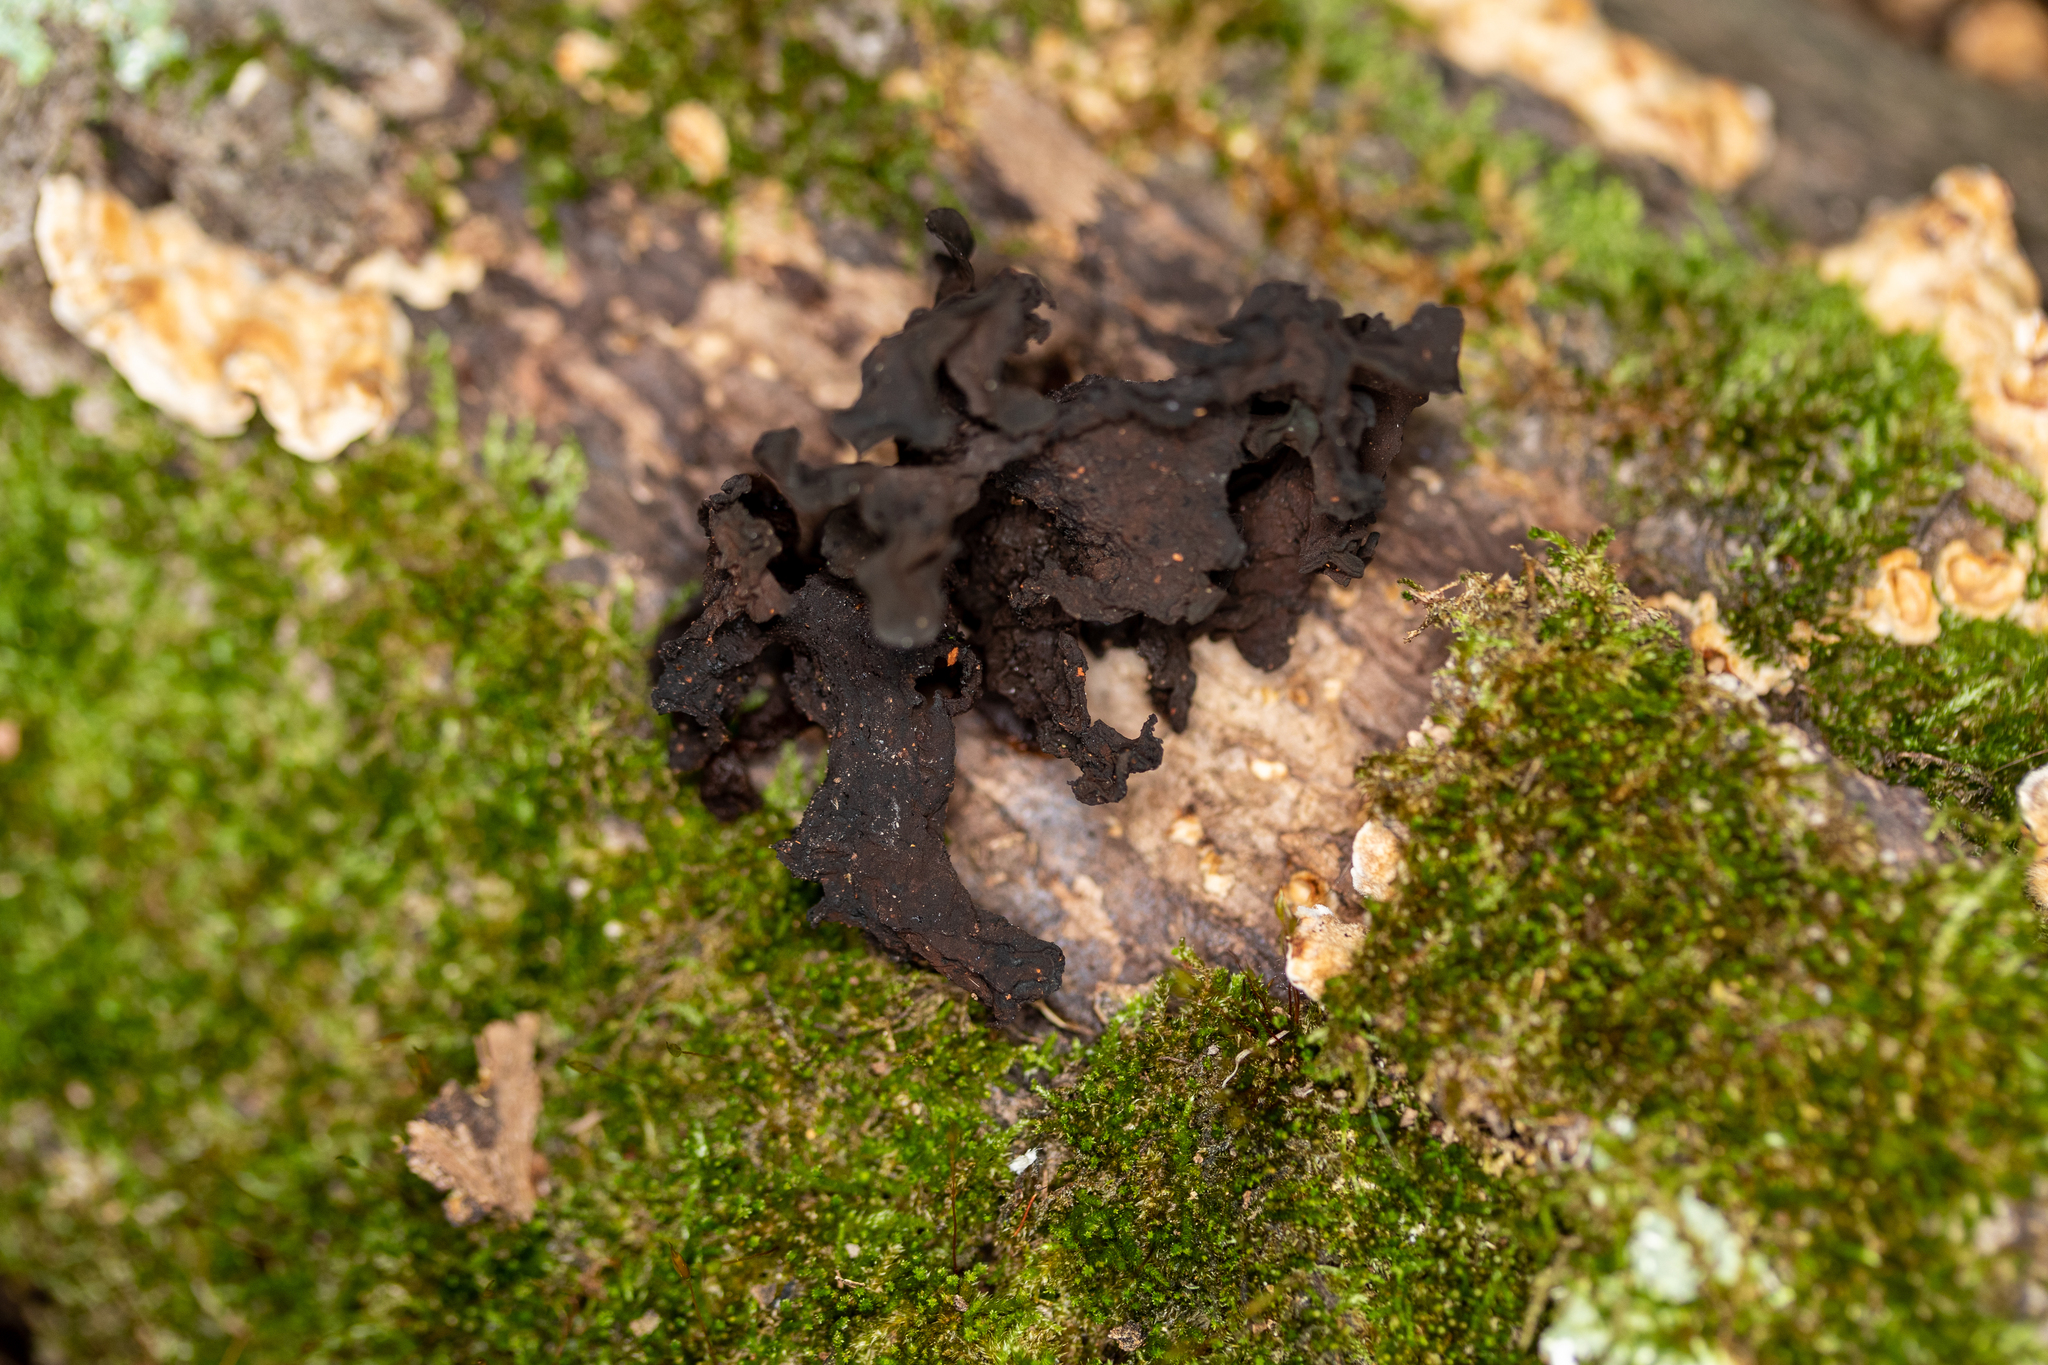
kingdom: Fungi
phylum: Basidiomycota
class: Tremellomycetes
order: Tremellales
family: Tremellaceae
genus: Phaeotremella
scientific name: Phaeotremella frondosa
